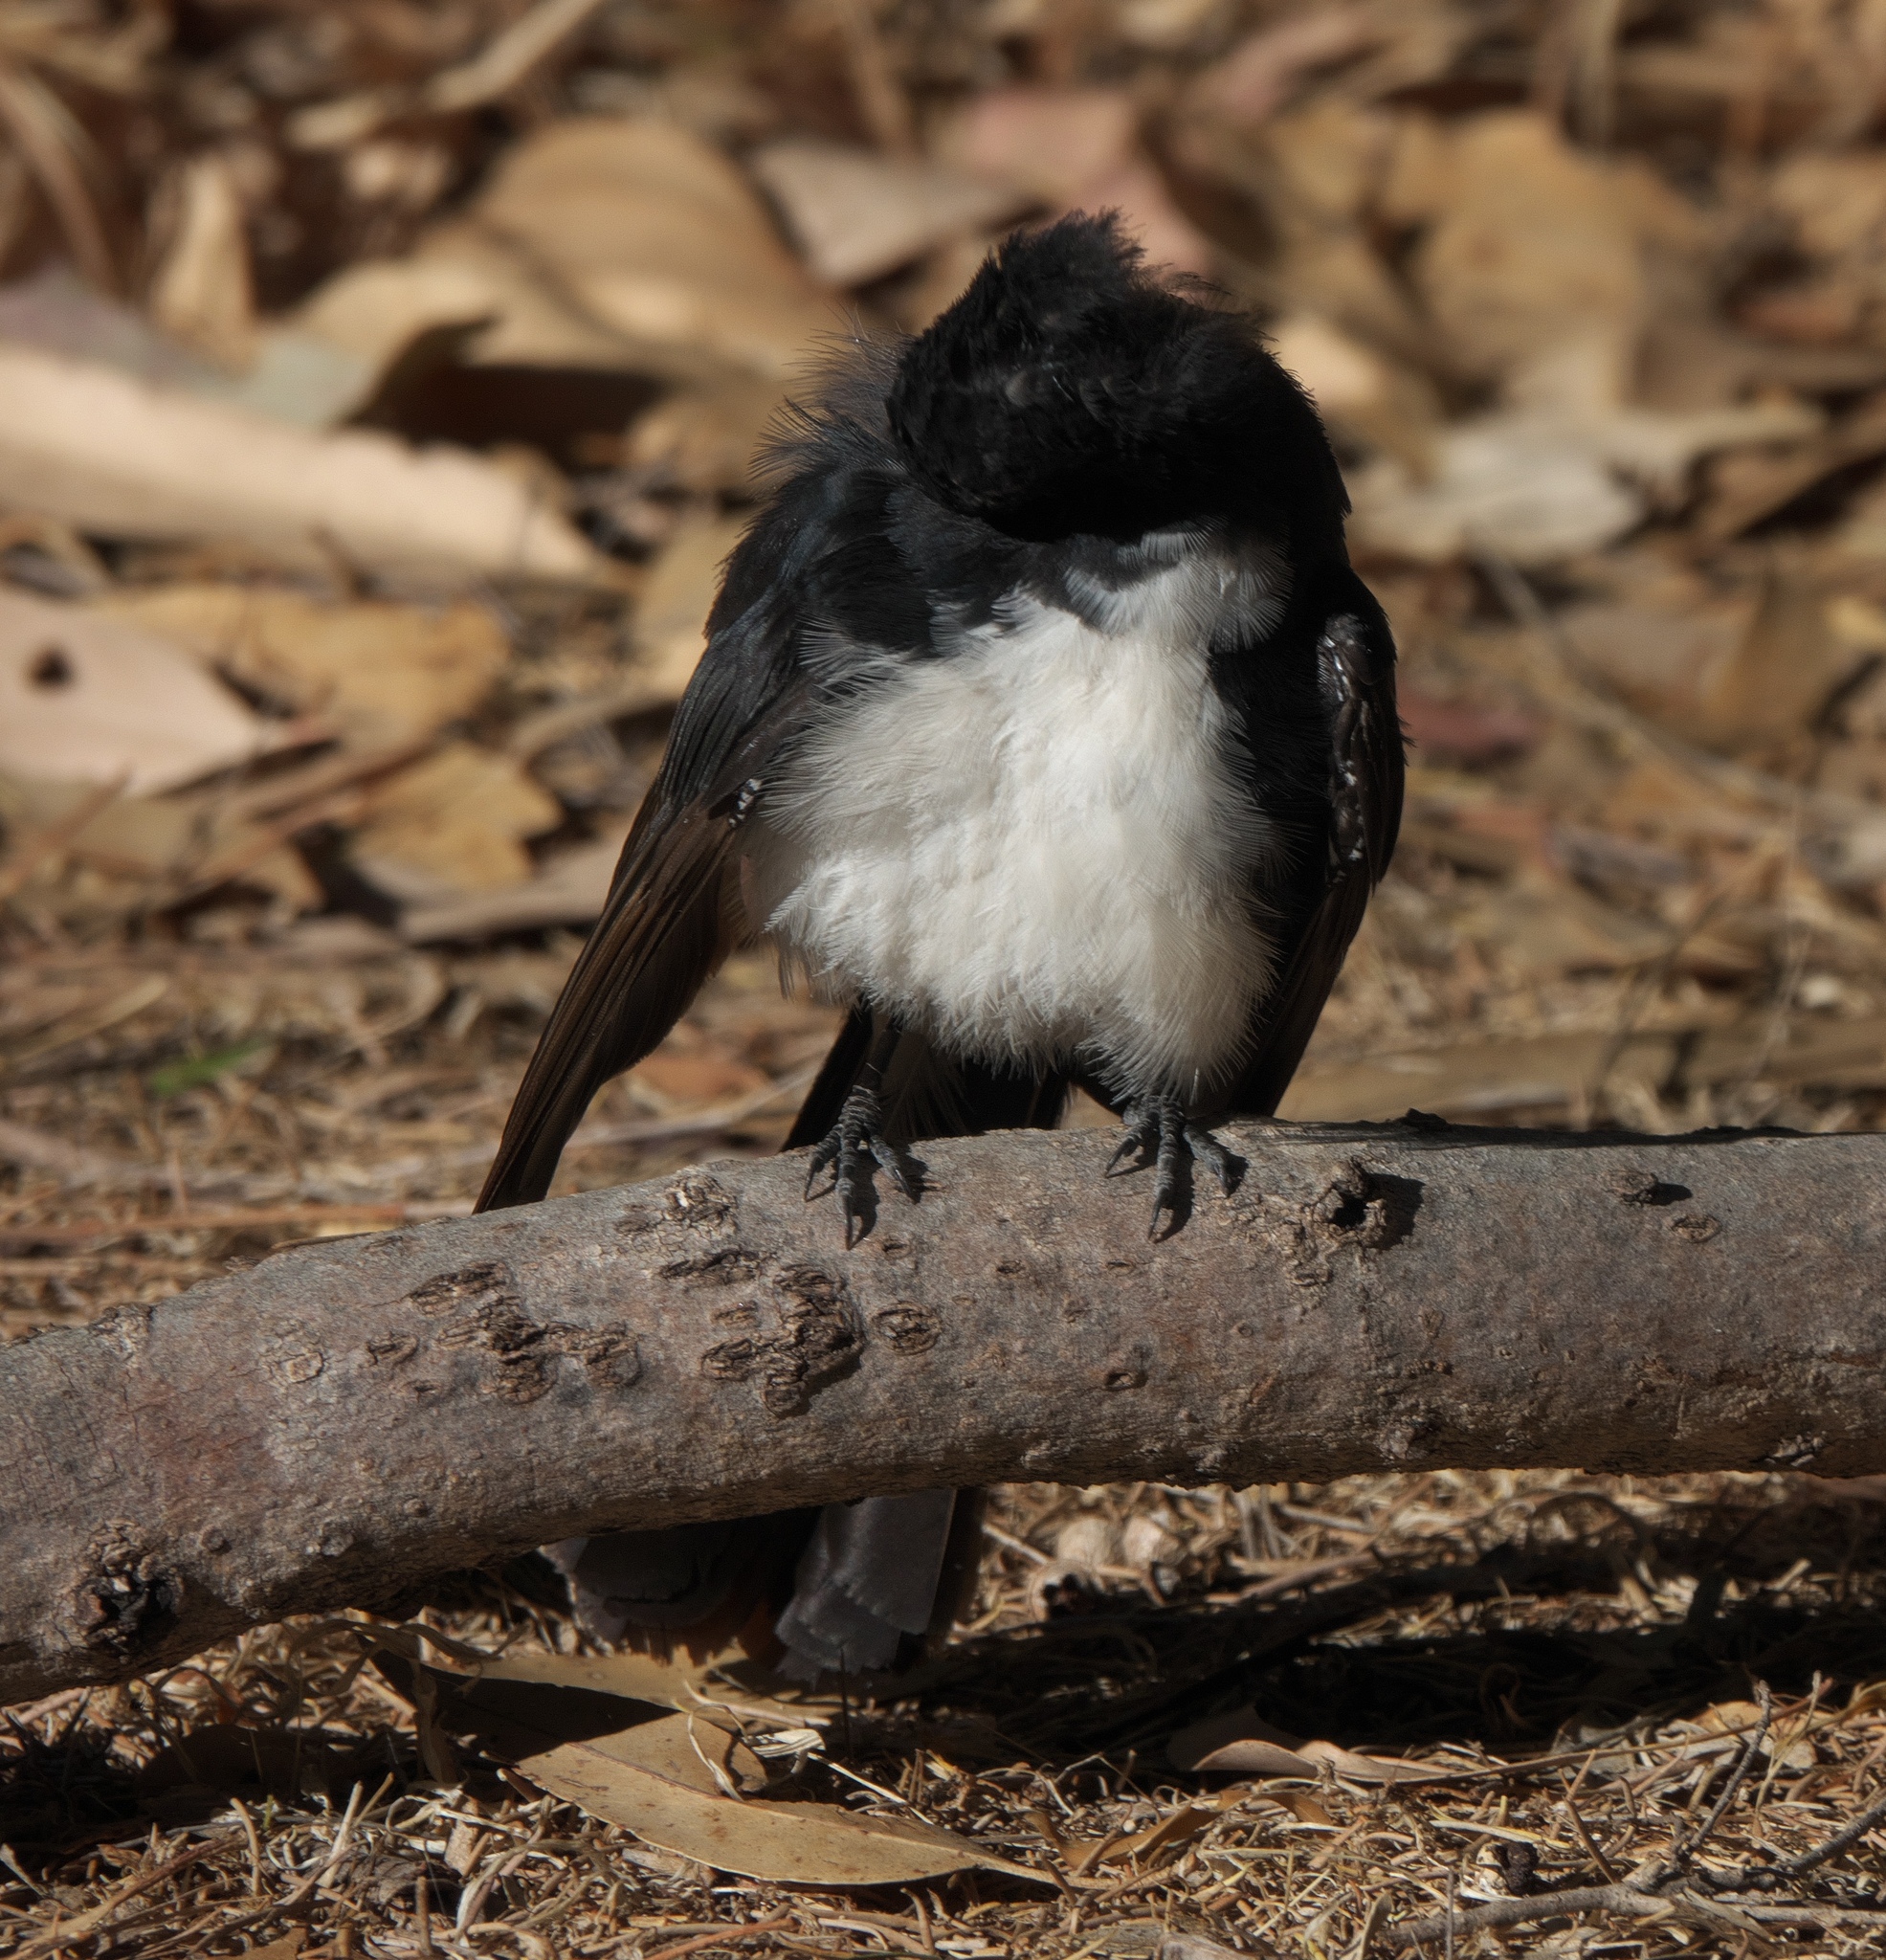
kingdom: Animalia
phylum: Chordata
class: Aves
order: Passeriformes
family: Rhipiduridae
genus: Rhipidura
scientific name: Rhipidura leucophrys
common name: Willie wagtail
